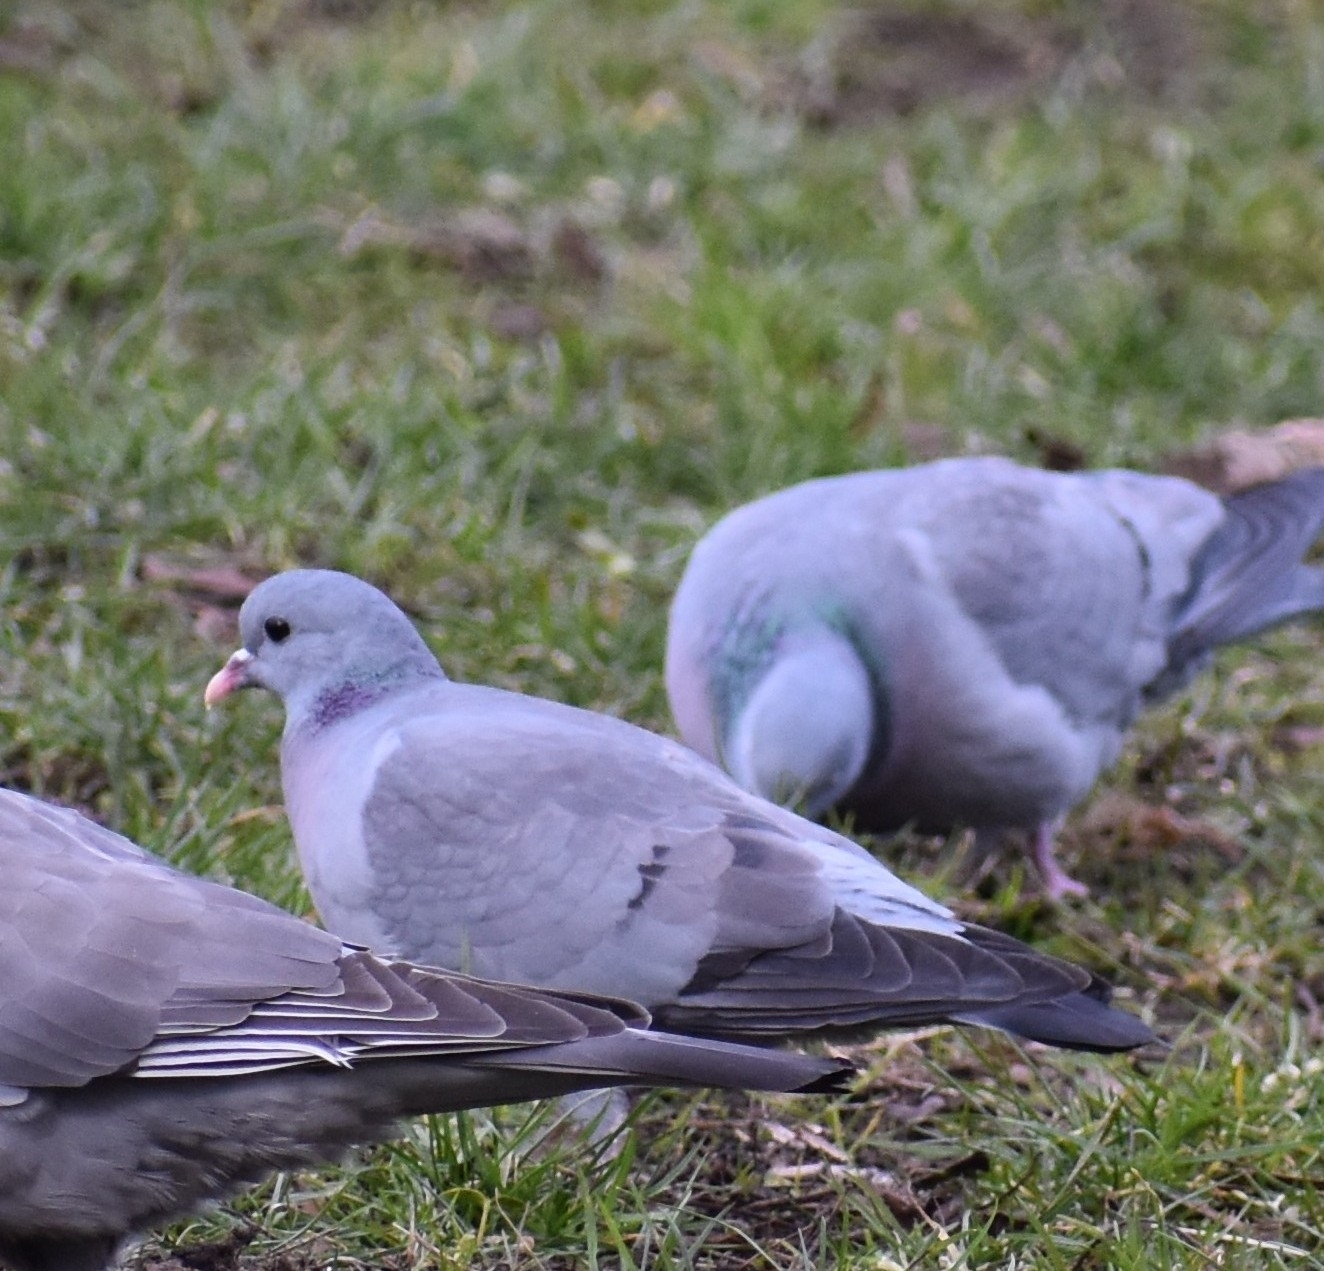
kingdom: Animalia
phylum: Chordata
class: Aves
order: Columbiformes
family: Columbidae
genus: Columba
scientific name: Columba oenas
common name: Stock dove
